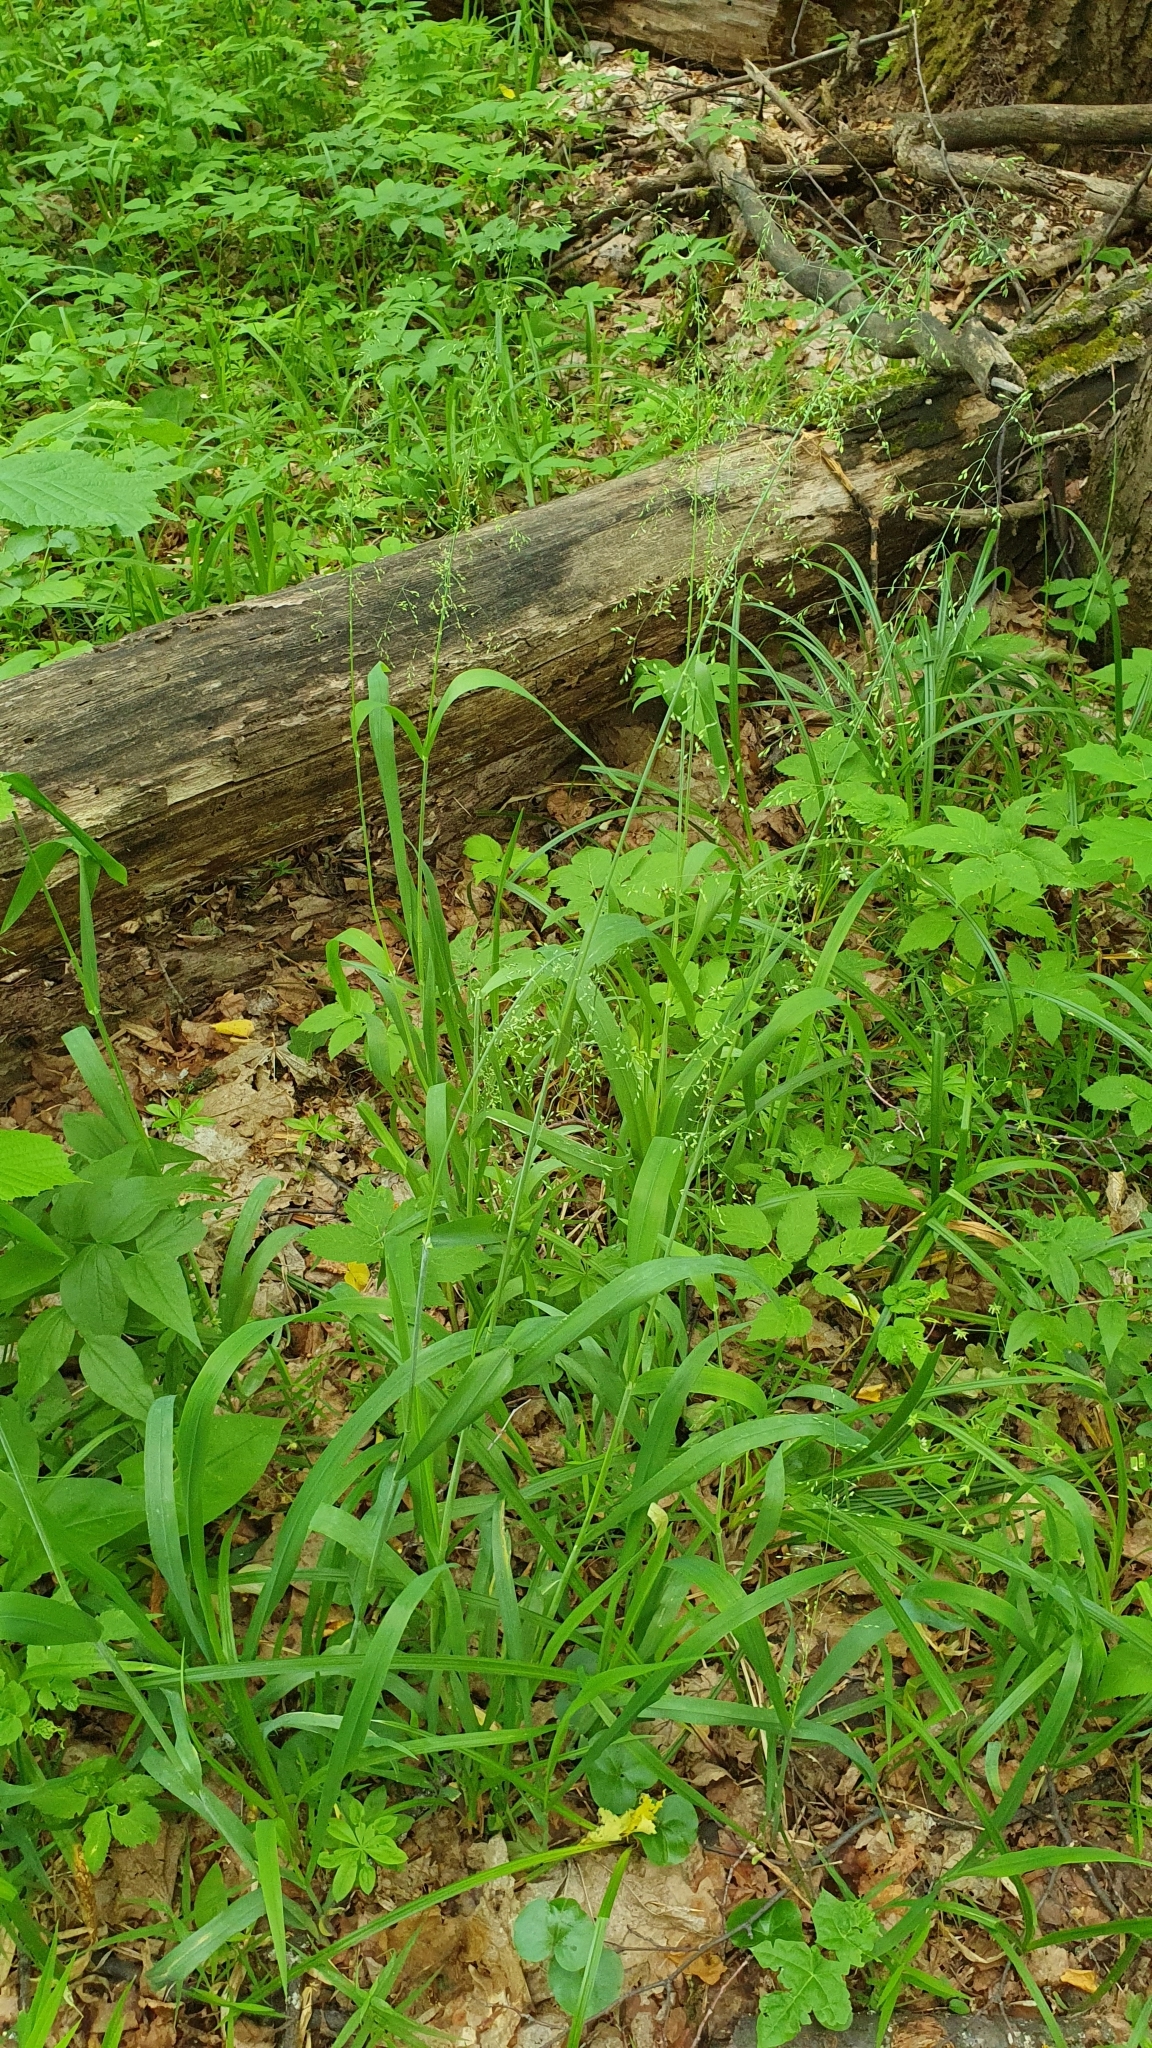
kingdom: Plantae
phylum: Tracheophyta
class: Liliopsida
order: Poales
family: Poaceae
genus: Milium
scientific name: Milium effusum
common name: Wood millet
